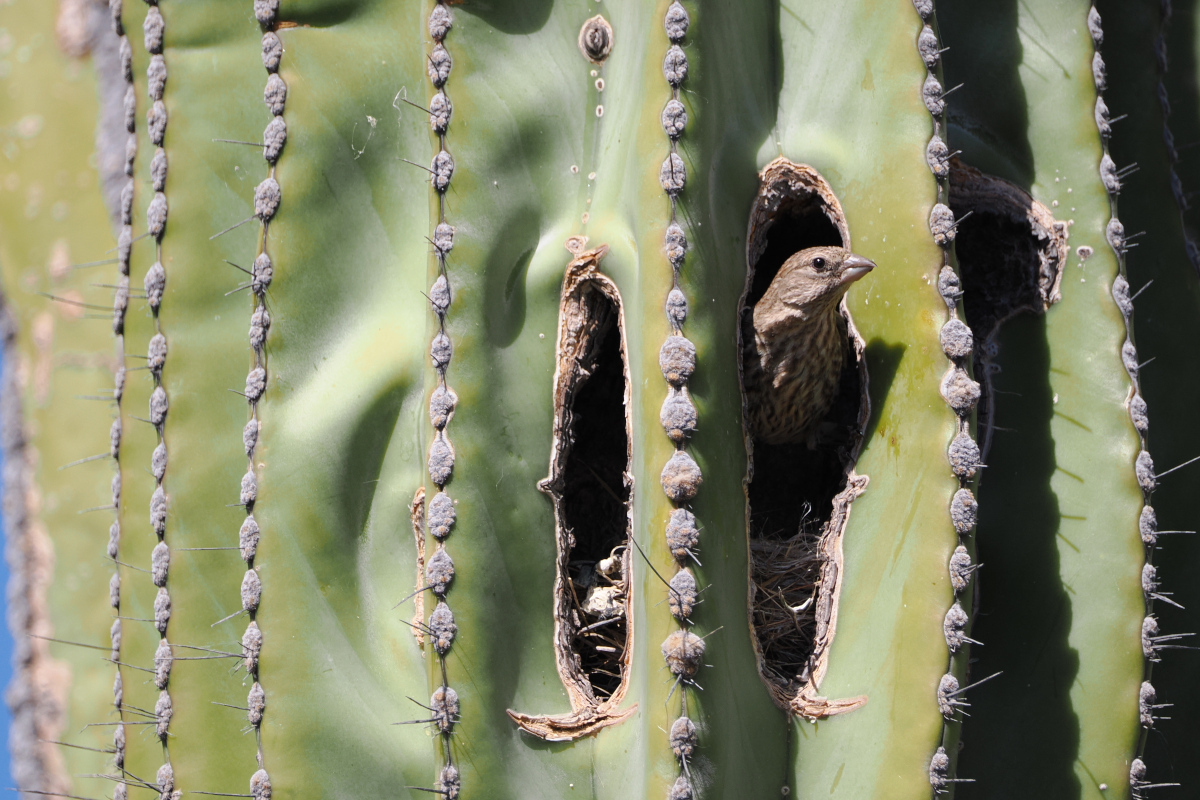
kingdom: Animalia
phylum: Chordata
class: Aves
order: Passeriformes
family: Fringillidae
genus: Haemorhous
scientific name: Haemorhous mexicanus
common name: House finch
